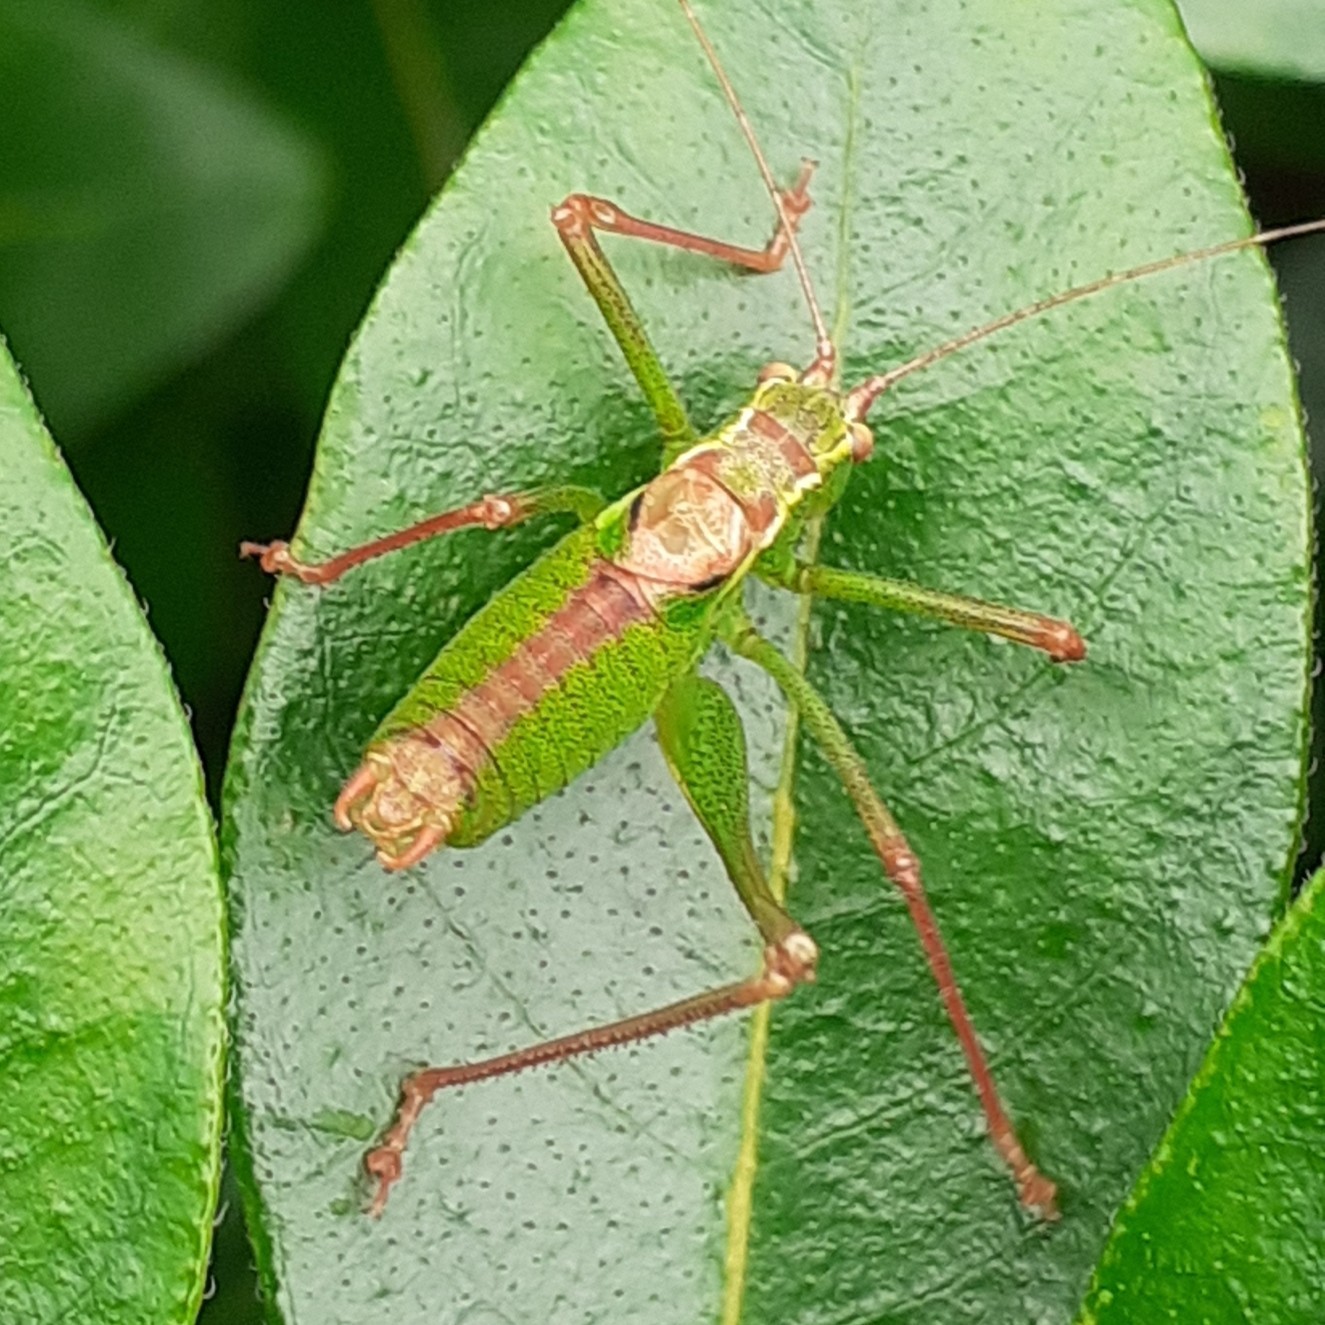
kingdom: Animalia
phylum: Arthropoda
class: Insecta
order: Orthoptera
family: Tettigoniidae
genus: Leptophyes
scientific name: Leptophyes punctatissima
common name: Speckled bush-cricket
